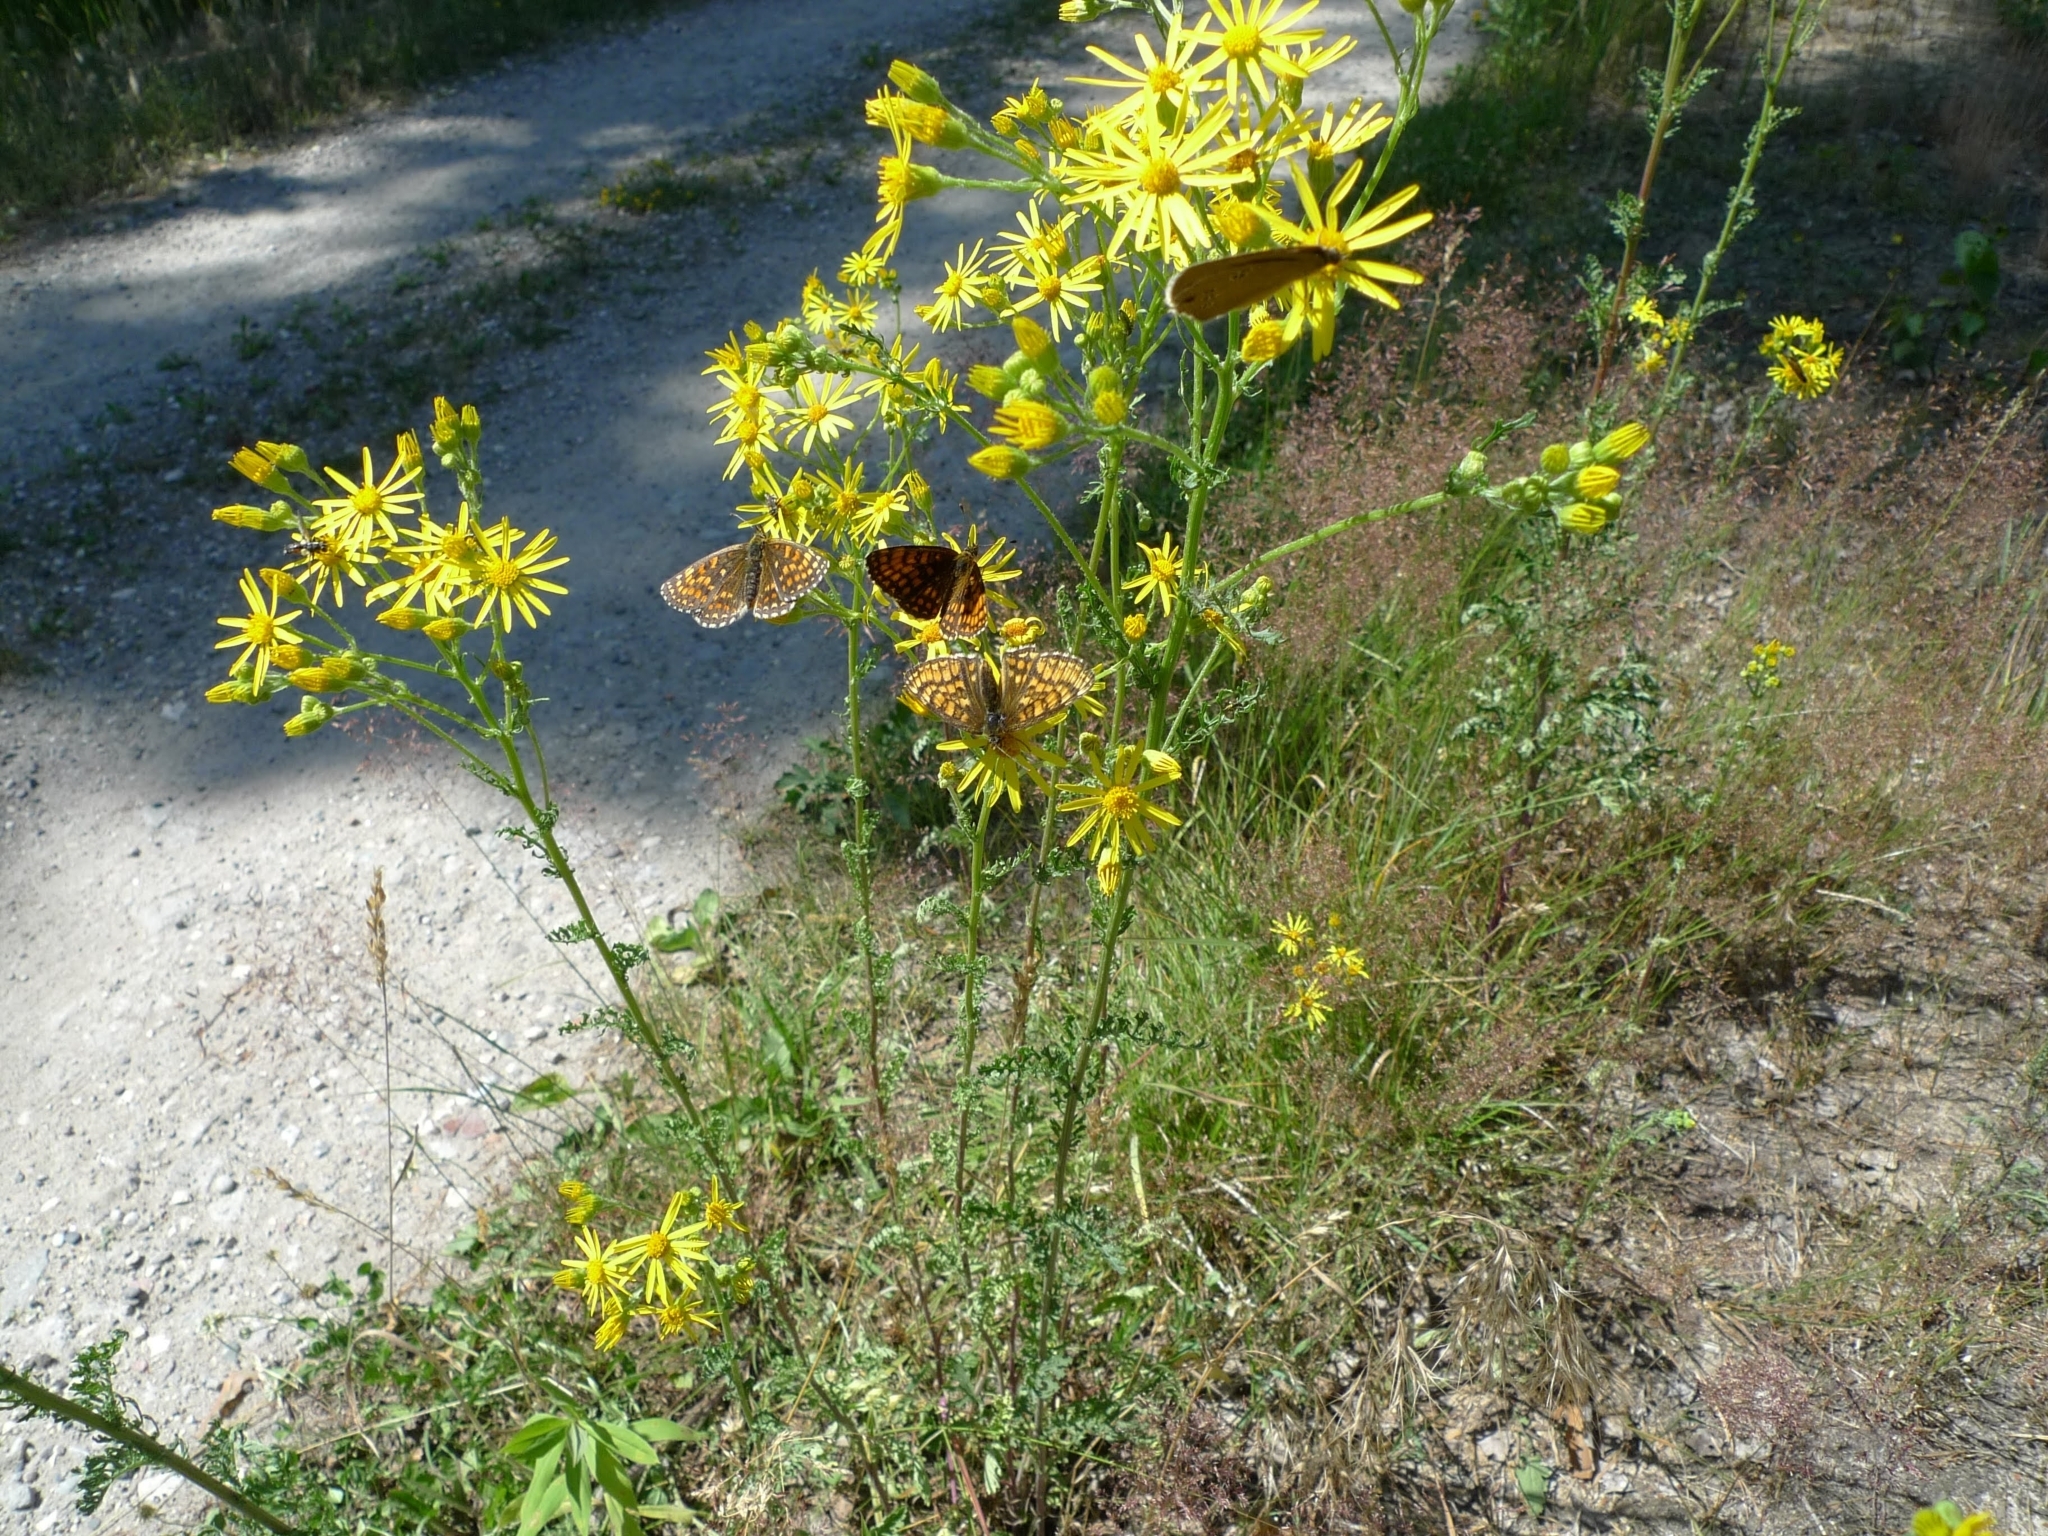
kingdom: Plantae
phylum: Tracheophyta
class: Magnoliopsida
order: Asterales
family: Asteraceae
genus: Jacobaea
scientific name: Jacobaea vulgaris
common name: Stinking willie
